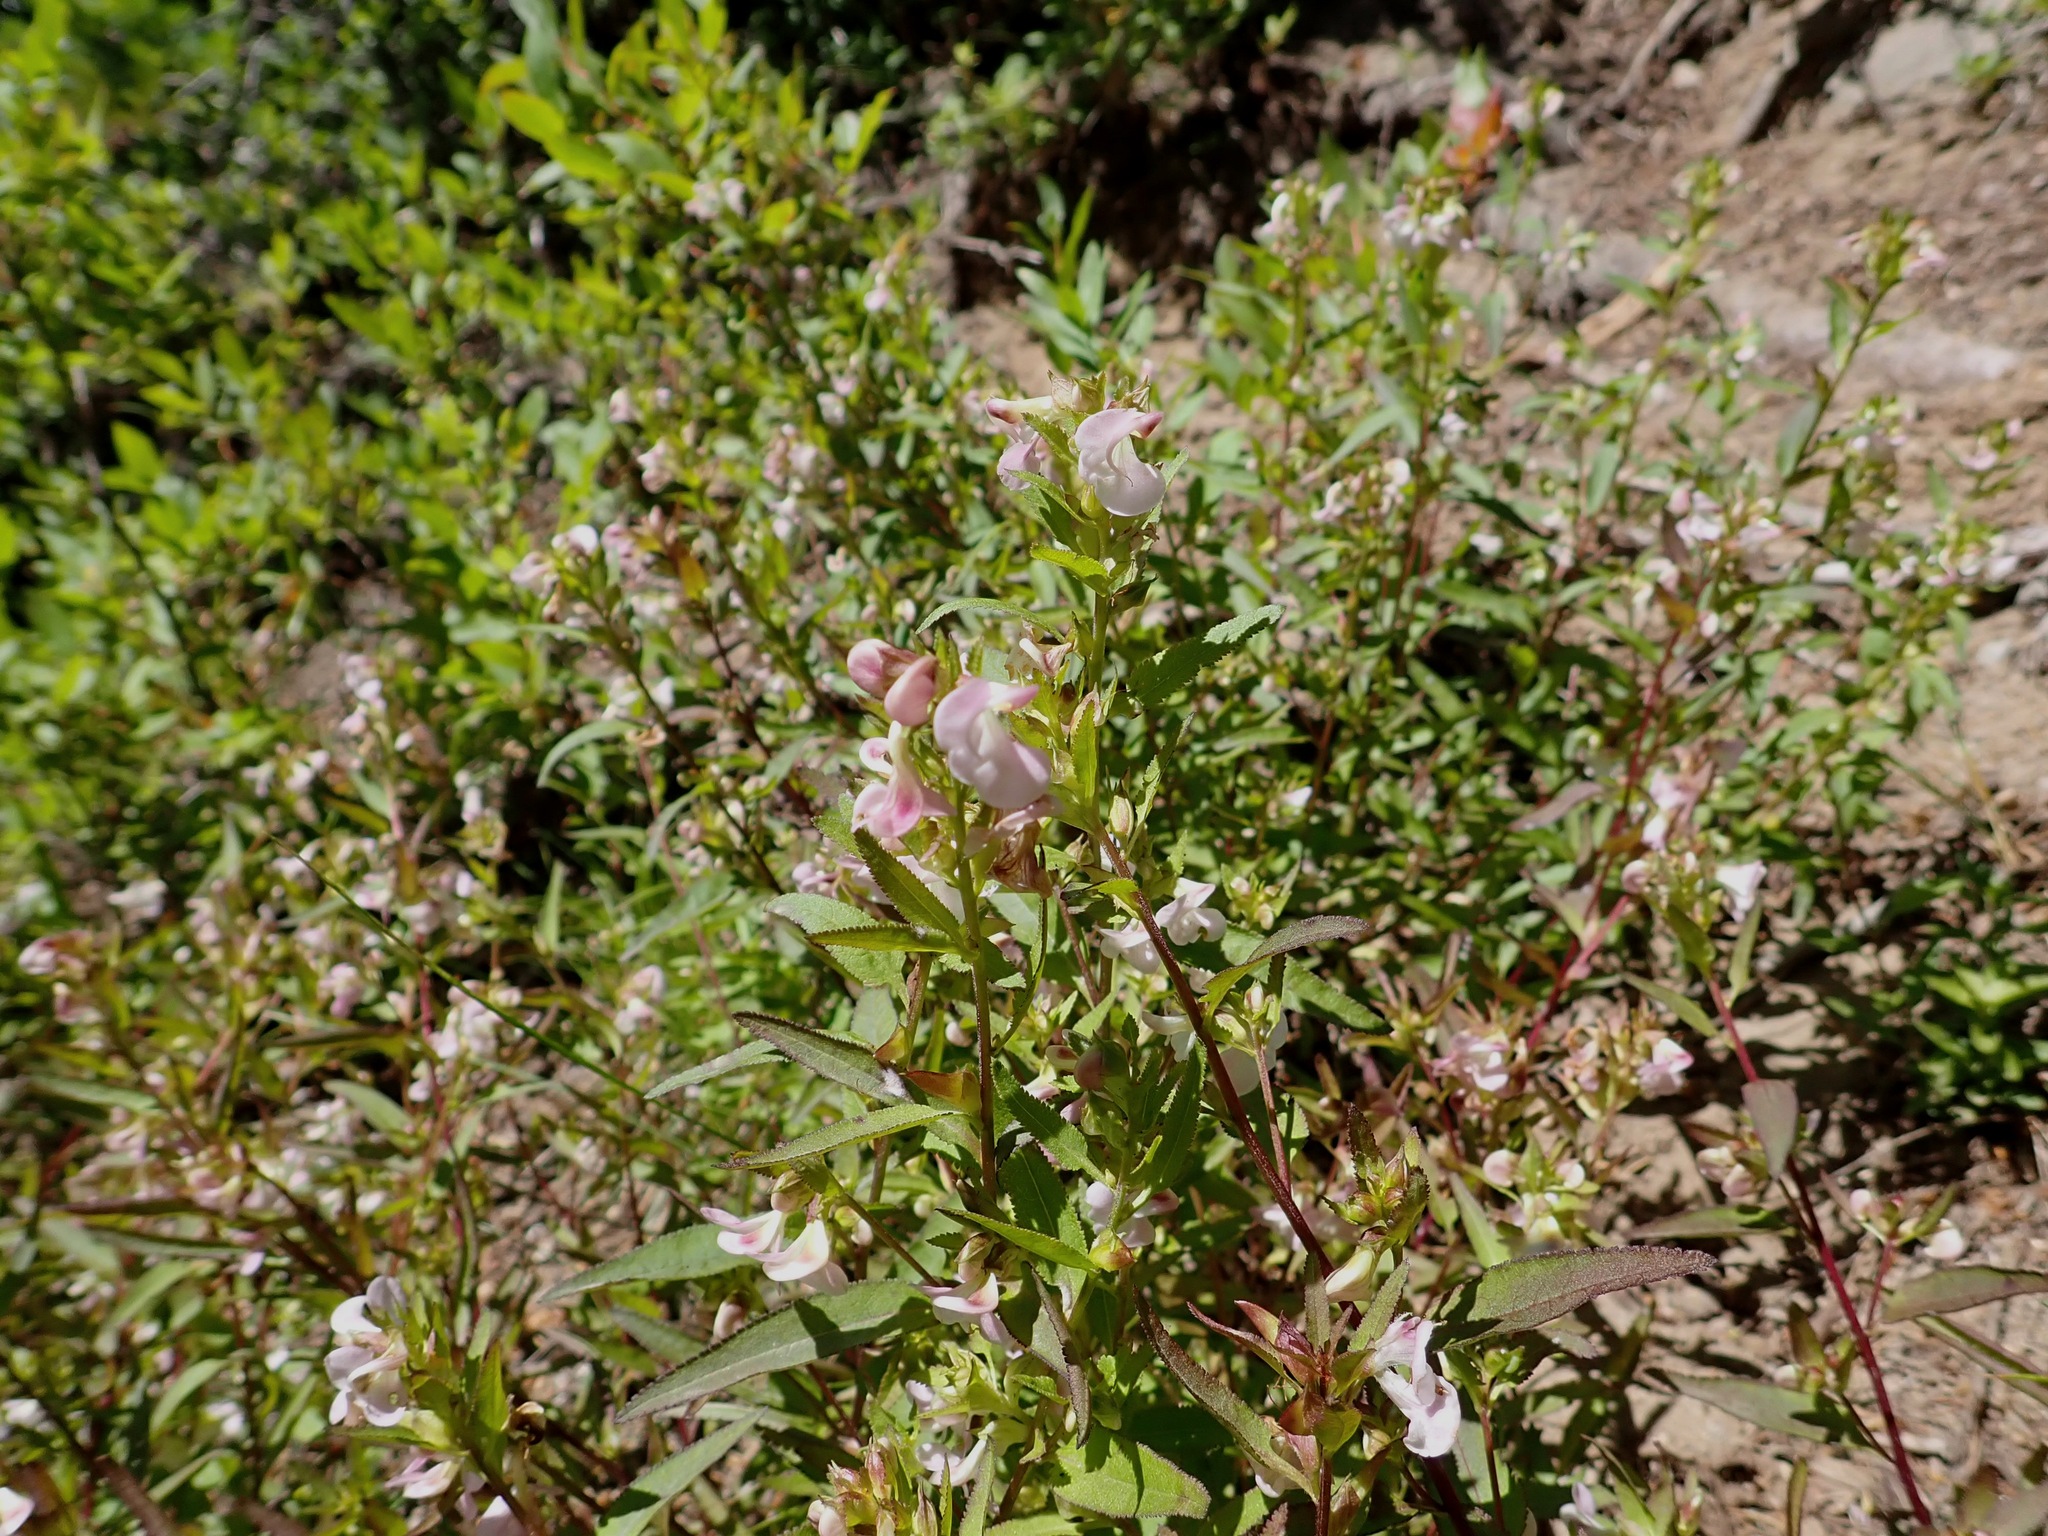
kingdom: Plantae
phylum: Tracheophyta
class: Magnoliopsida
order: Lamiales
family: Orobanchaceae
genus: Pedicularis
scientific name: Pedicularis racemosa
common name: Leafy lousewort
